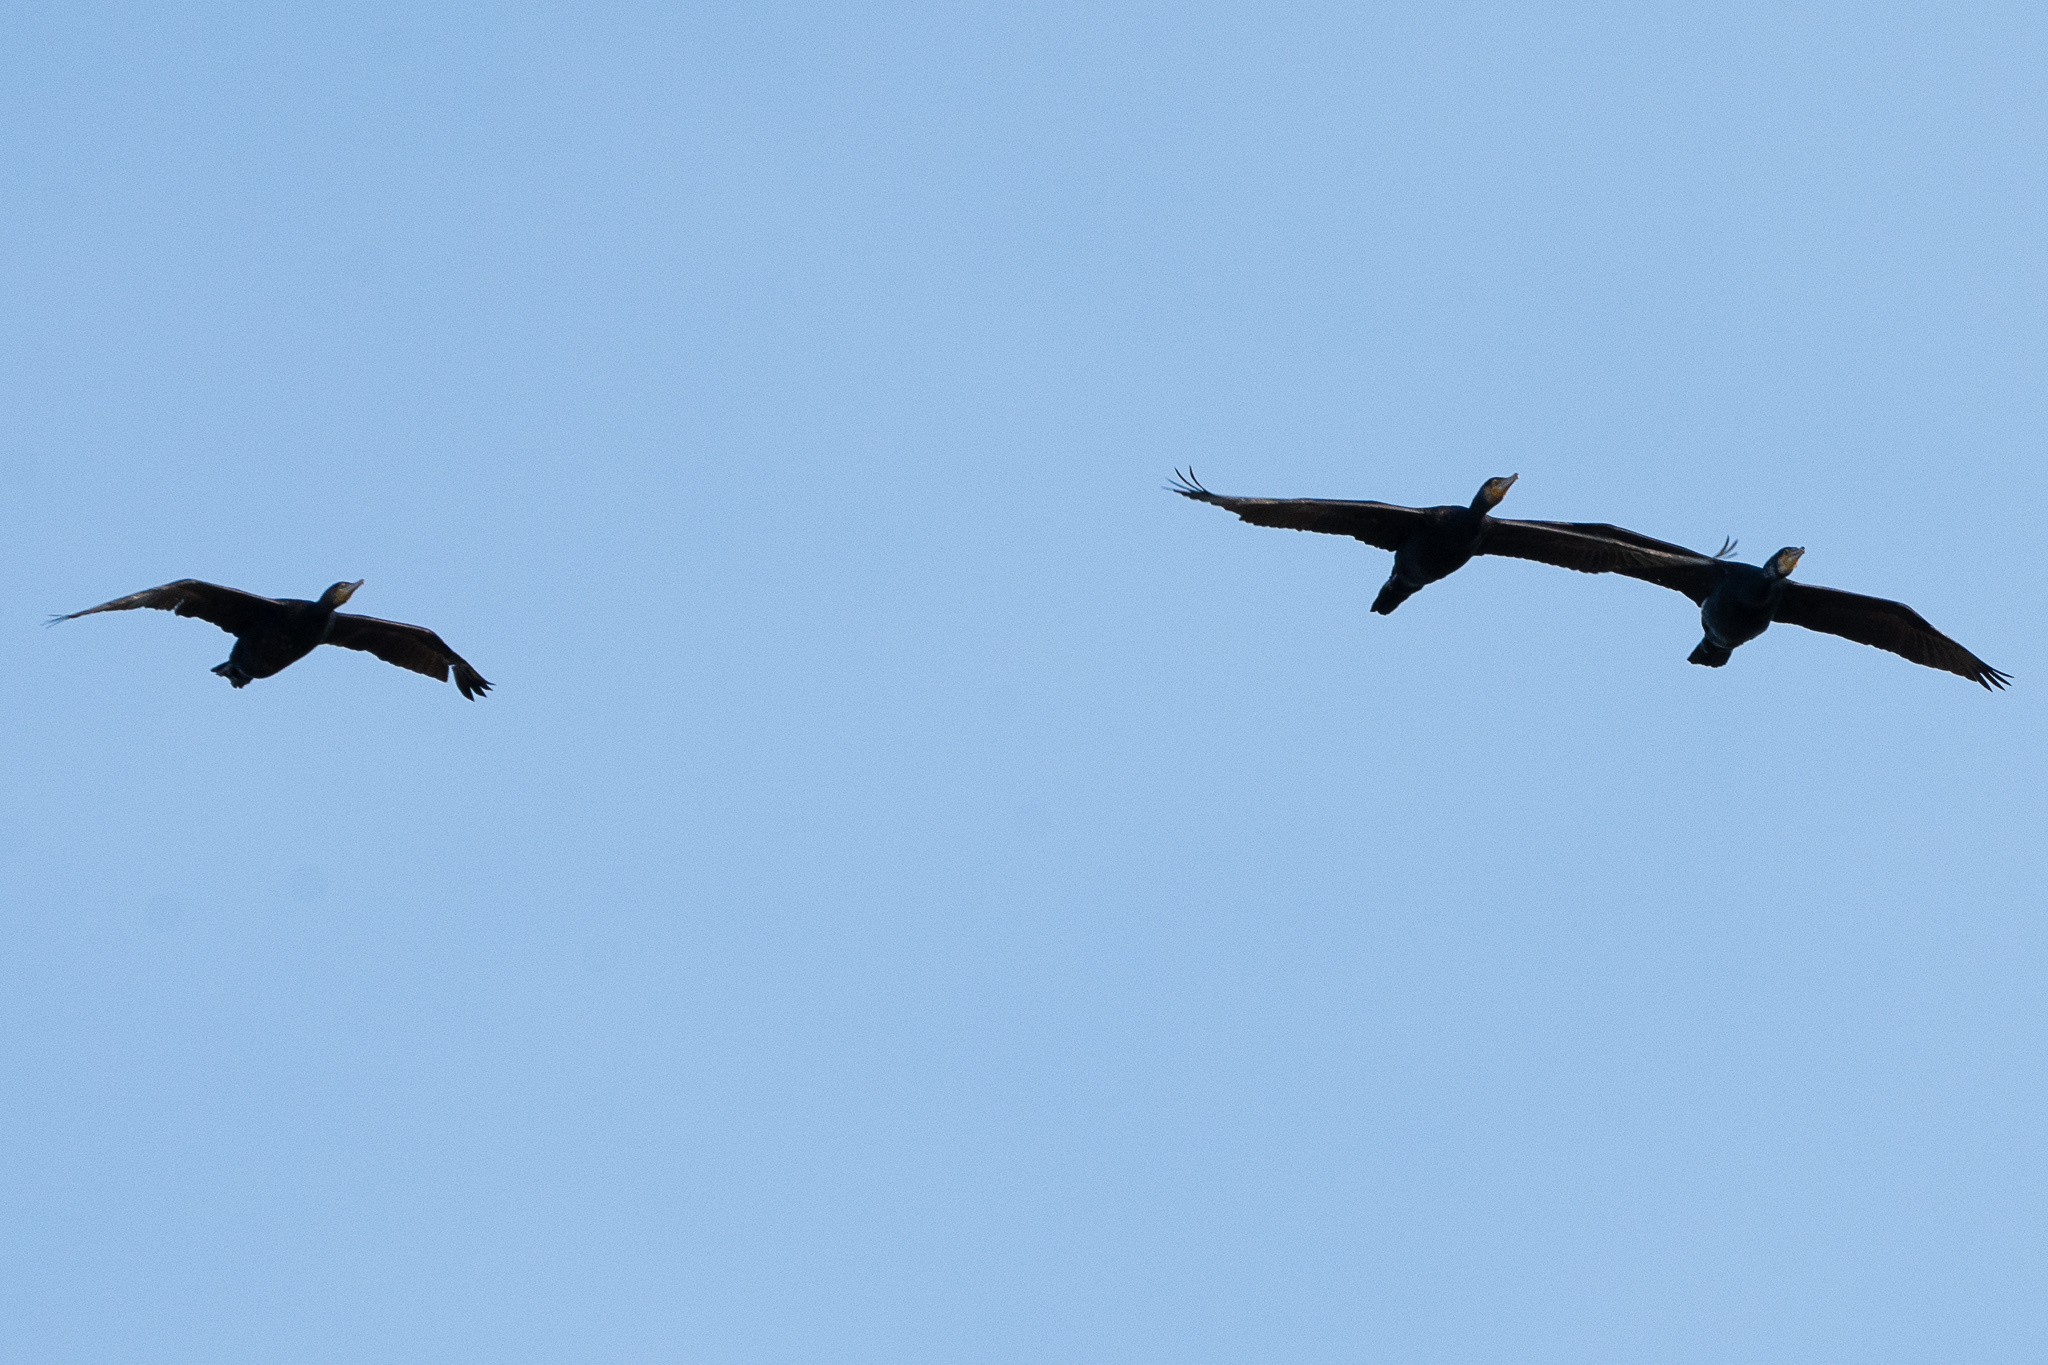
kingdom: Animalia
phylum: Chordata
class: Aves
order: Suliformes
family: Phalacrocoracidae
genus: Phalacrocorax
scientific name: Phalacrocorax carbo
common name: Great cormorant
